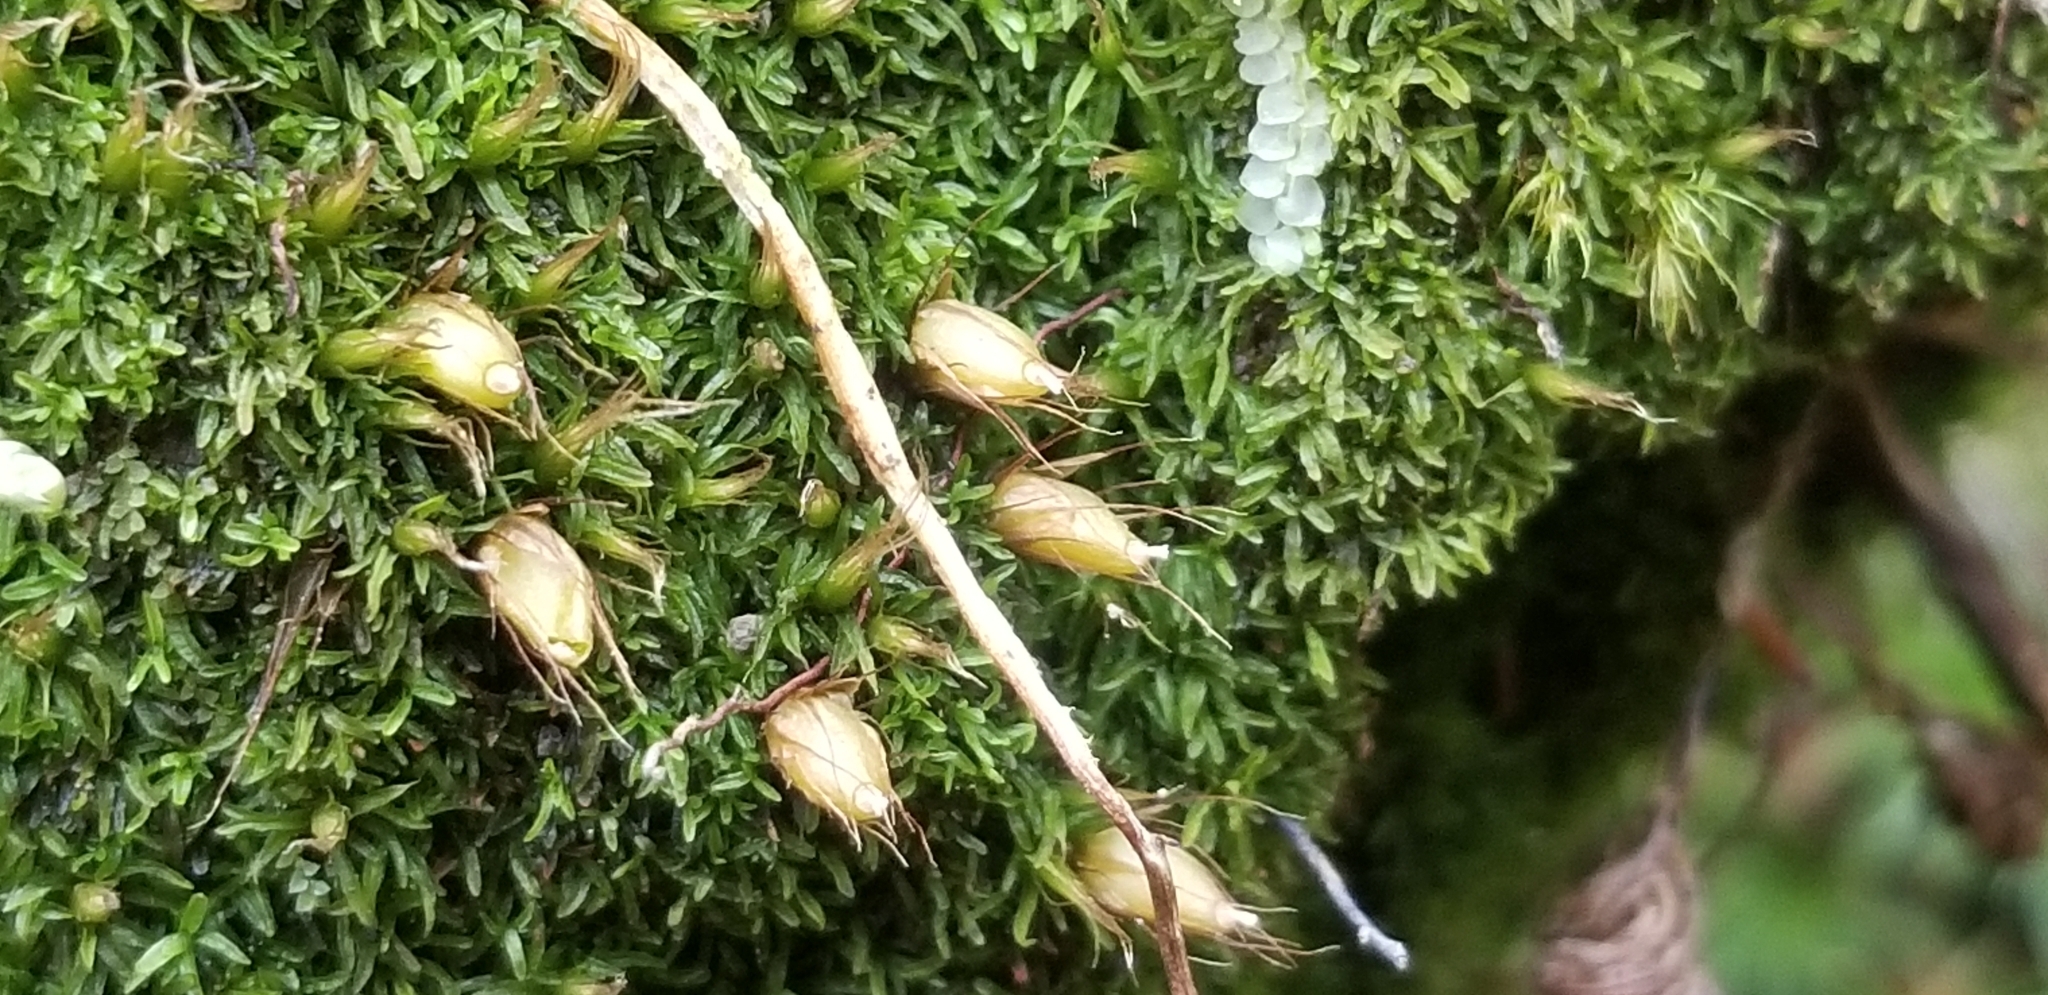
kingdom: Plantae
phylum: Bryophyta
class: Bryopsida
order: Diphysciales
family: Diphysciaceae
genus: Diphyscium
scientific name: Diphyscium foliosum
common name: Nut moss
